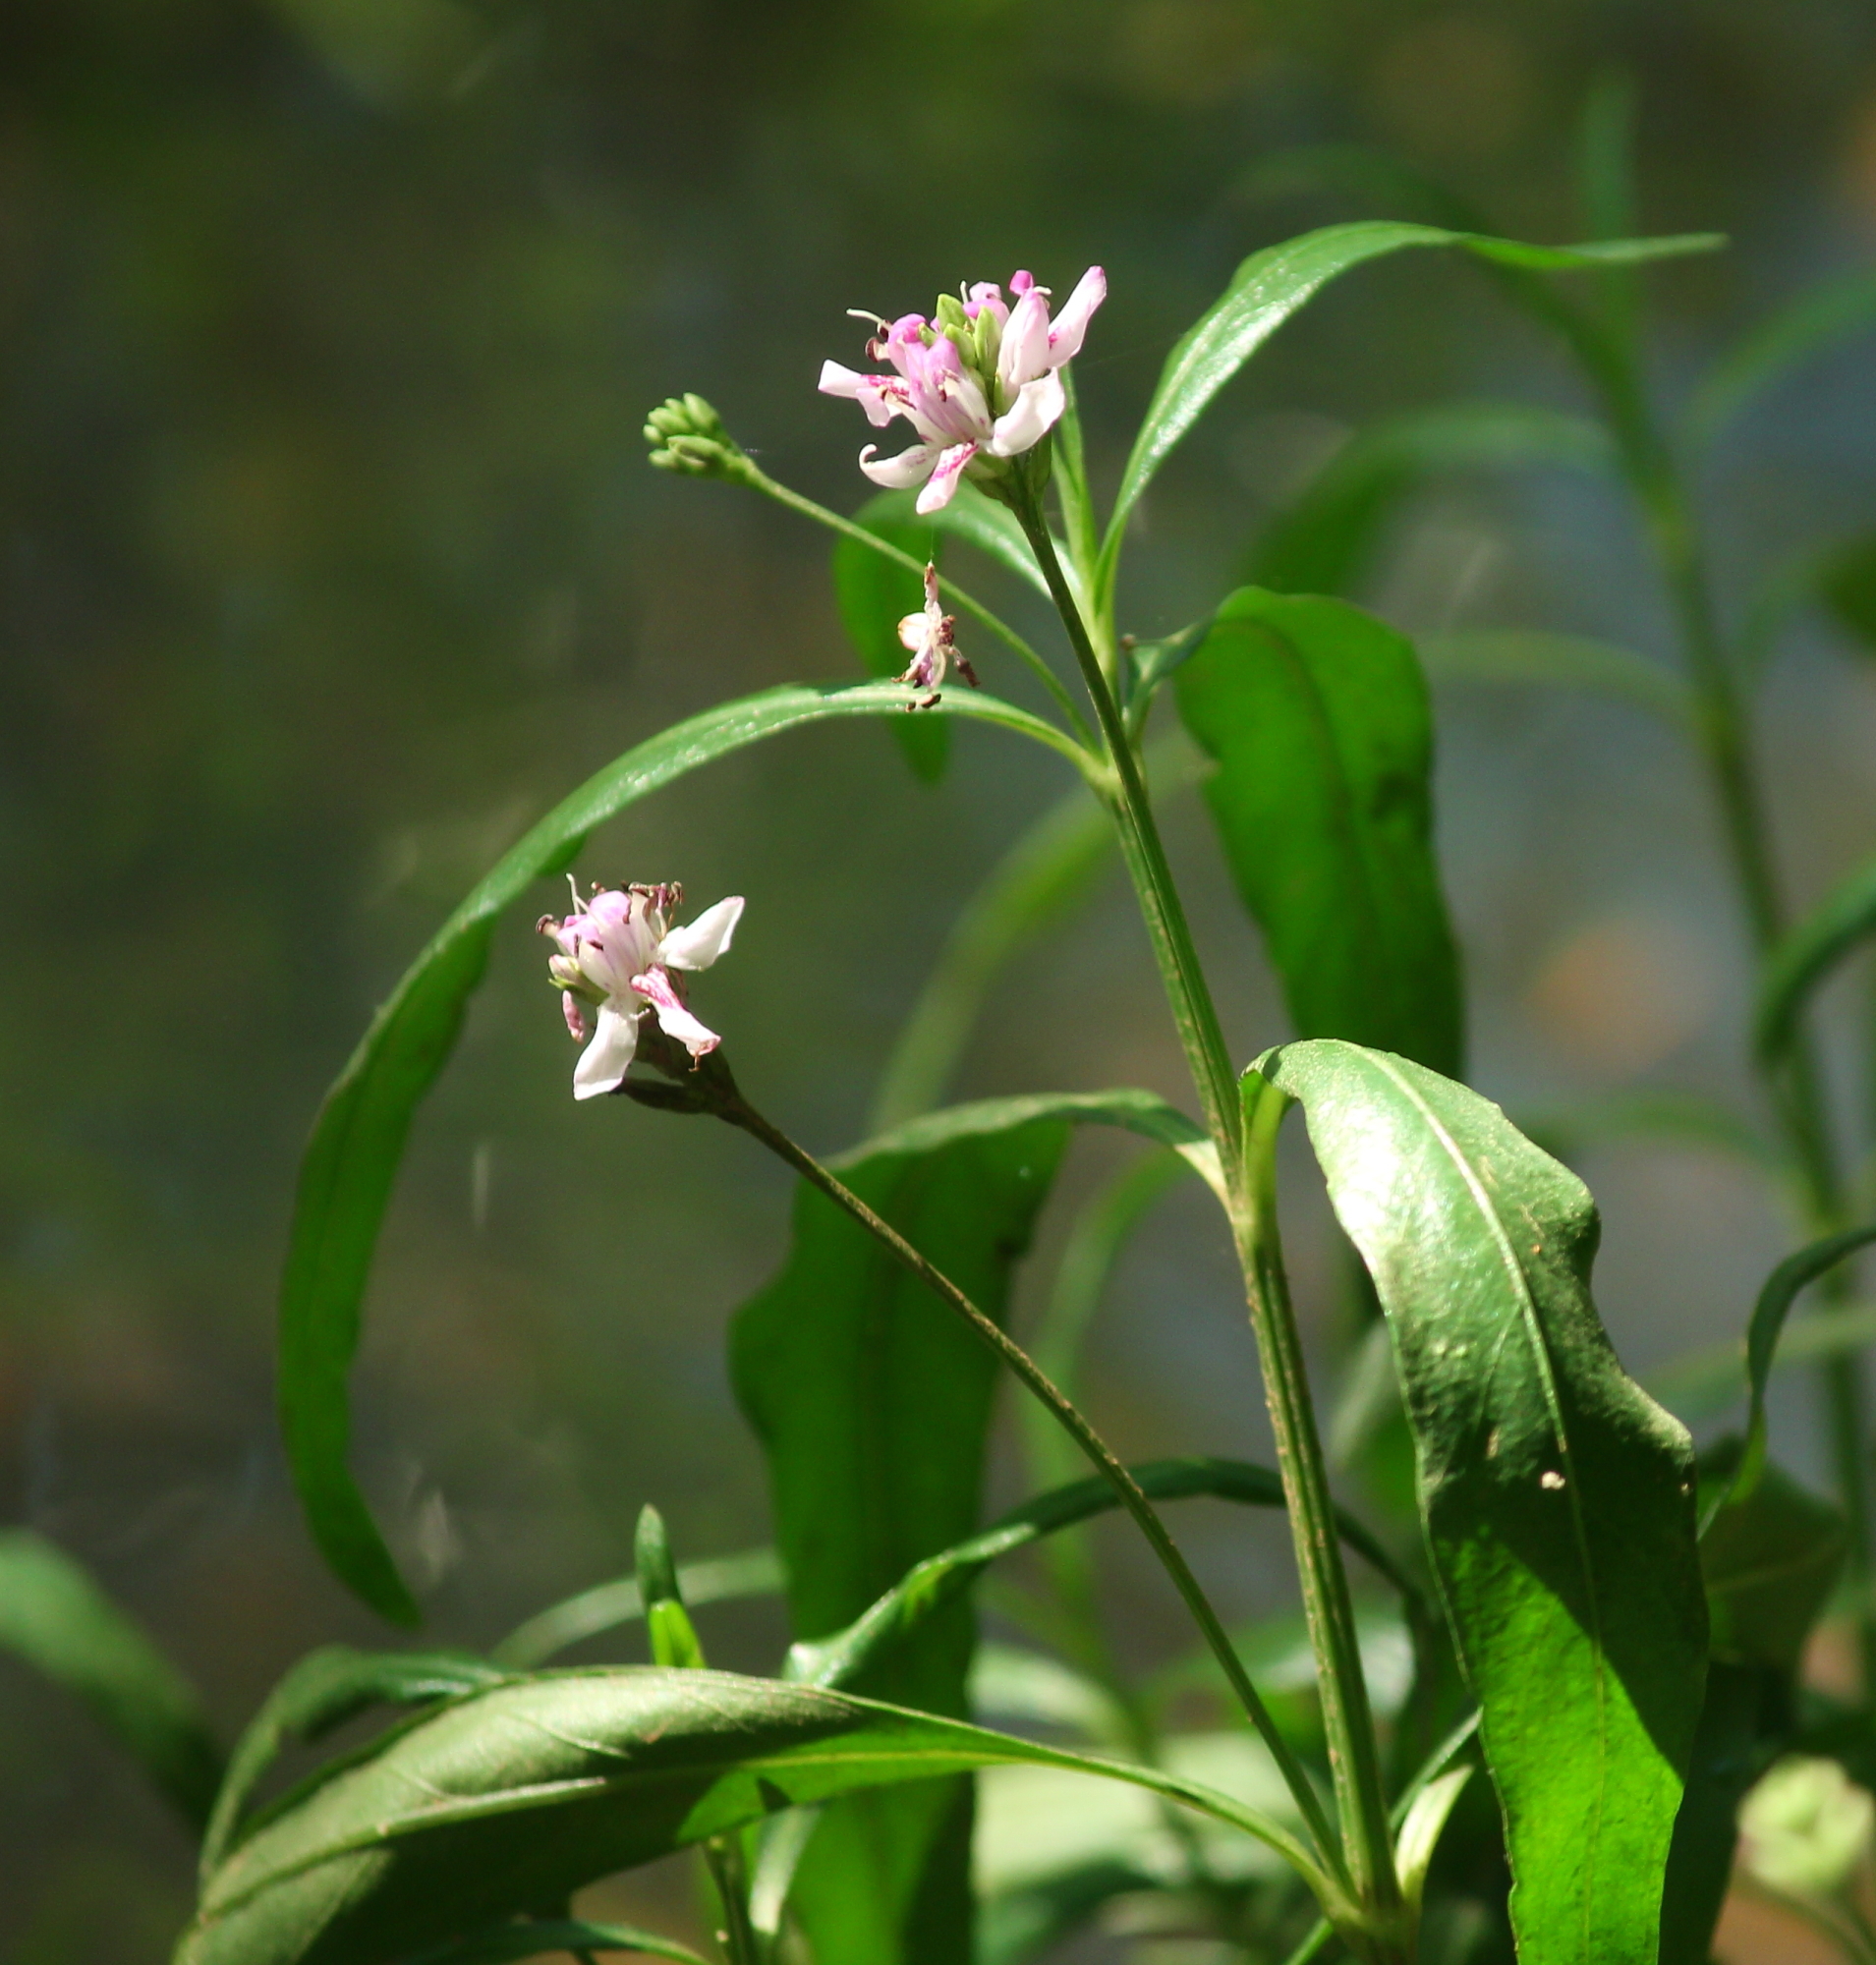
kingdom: Plantae
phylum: Tracheophyta
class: Magnoliopsida
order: Lamiales
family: Acanthaceae
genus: Dianthera
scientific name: Dianthera americana
